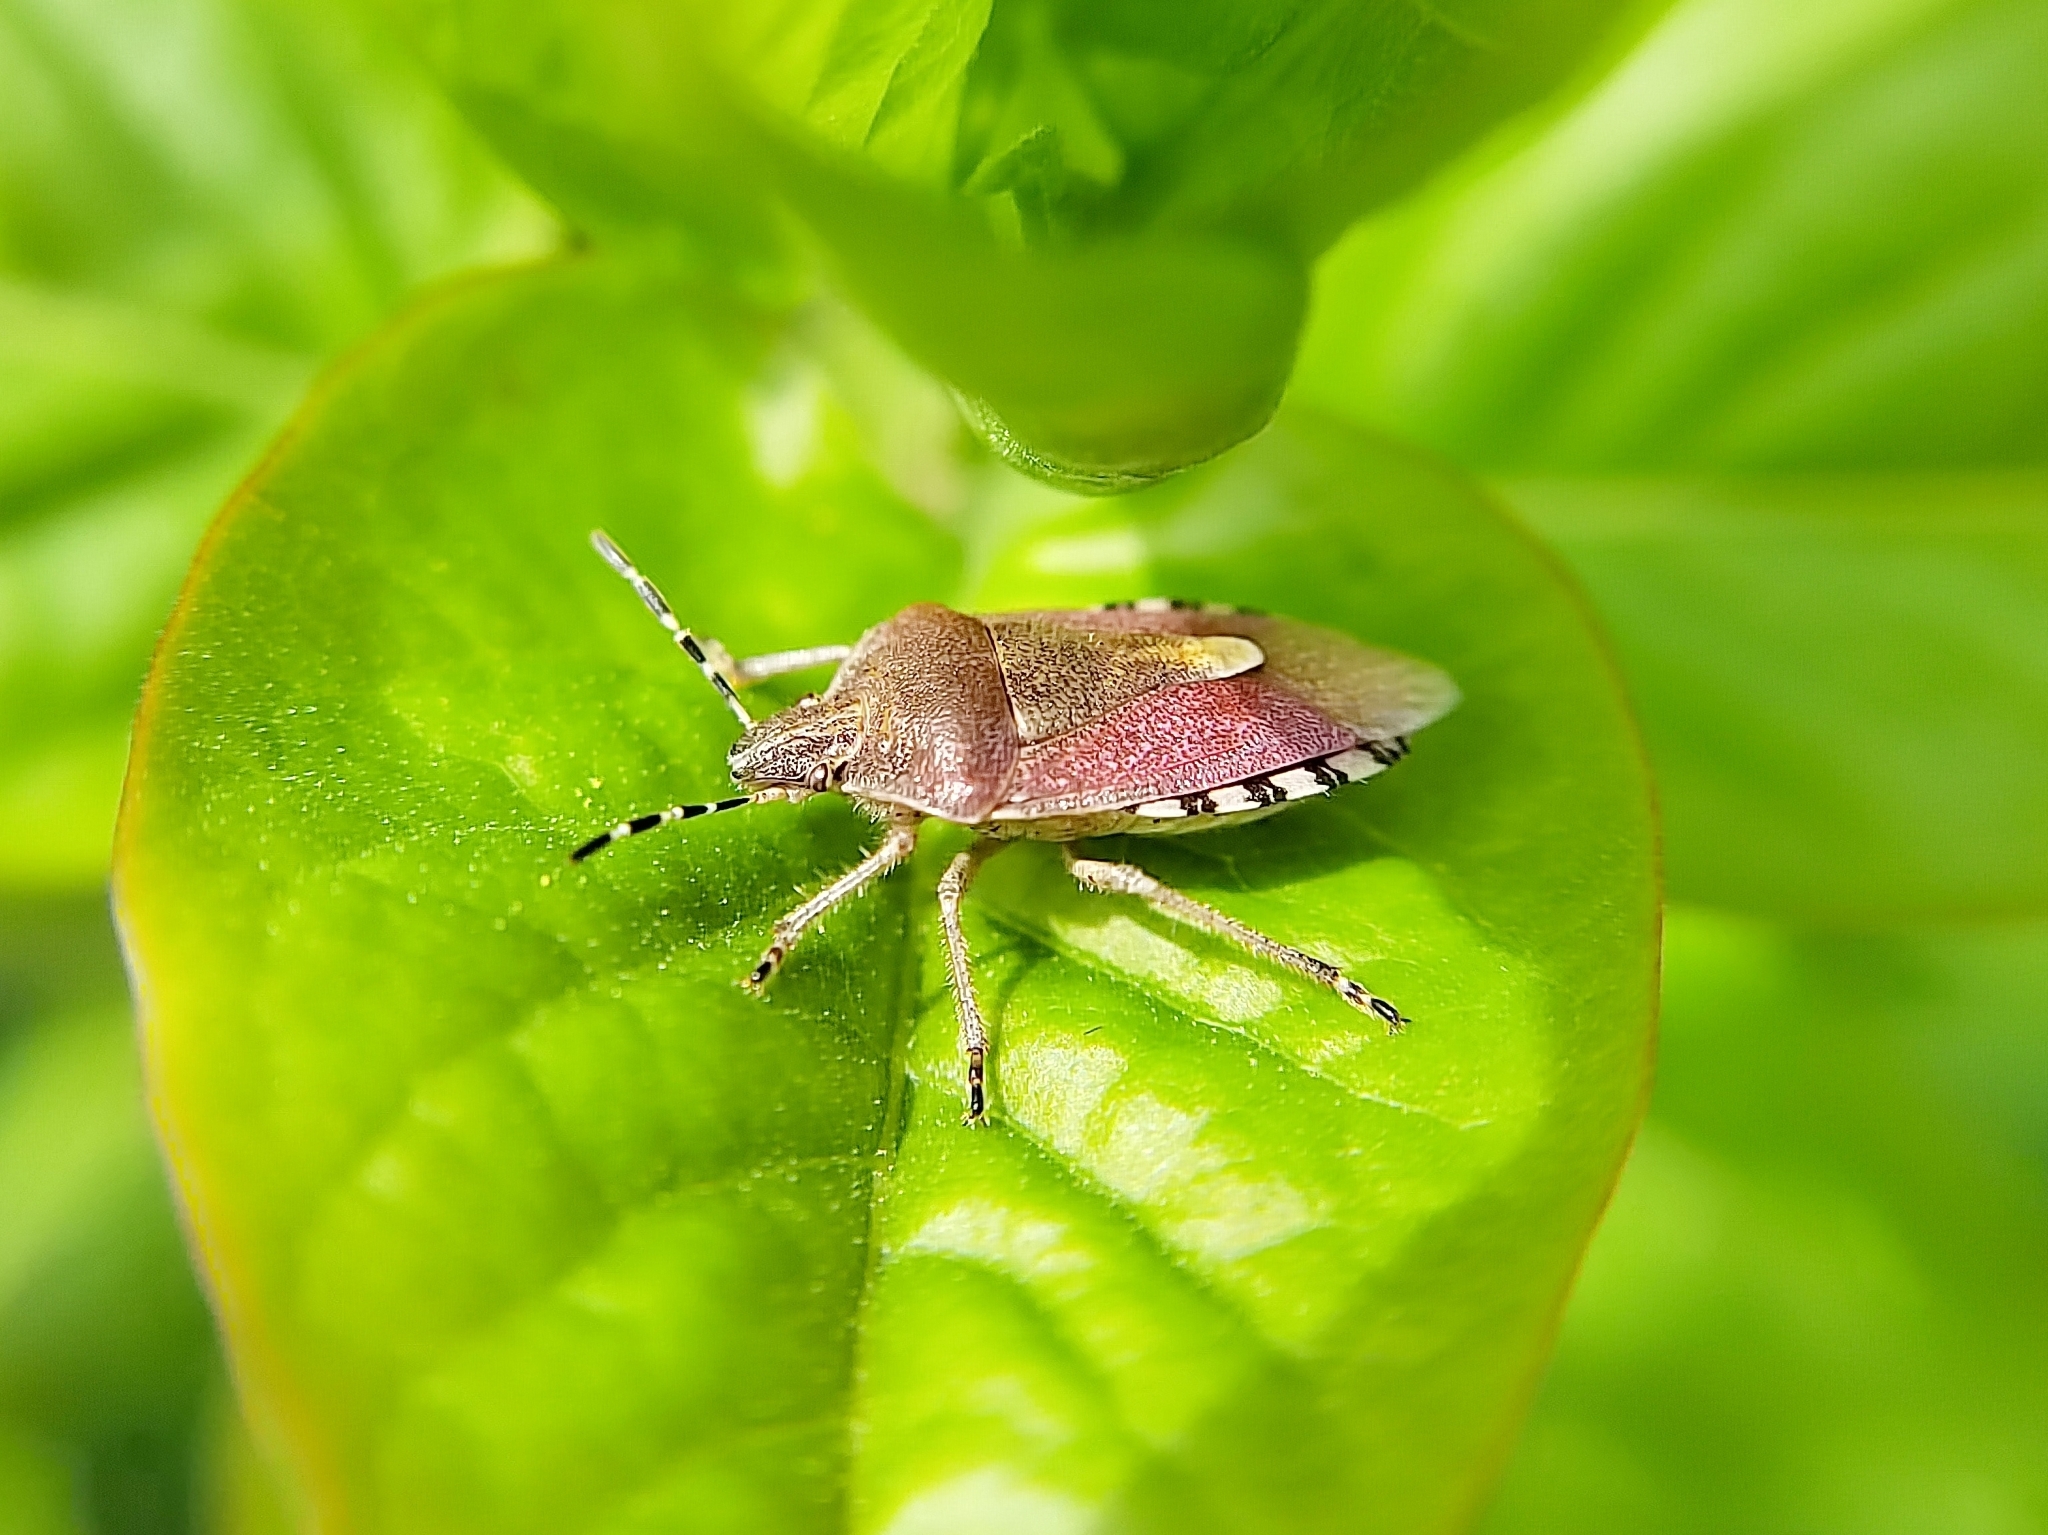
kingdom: Animalia
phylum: Arthropoda
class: Insecta
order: Hemiptera
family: Pentatomidae
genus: Dolycoris
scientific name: Dolycoris baccarum
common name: Sloe bug
